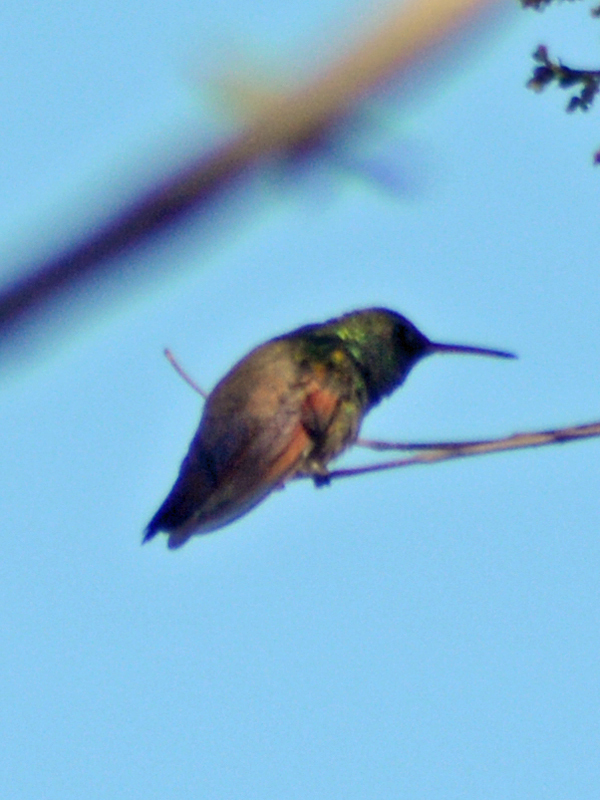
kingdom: Animalia
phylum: Chordata
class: Aves
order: Apodiformes
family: Trochilidae
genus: Saucerottia
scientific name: Saucerottia beryllina
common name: Berylline hummingbird
